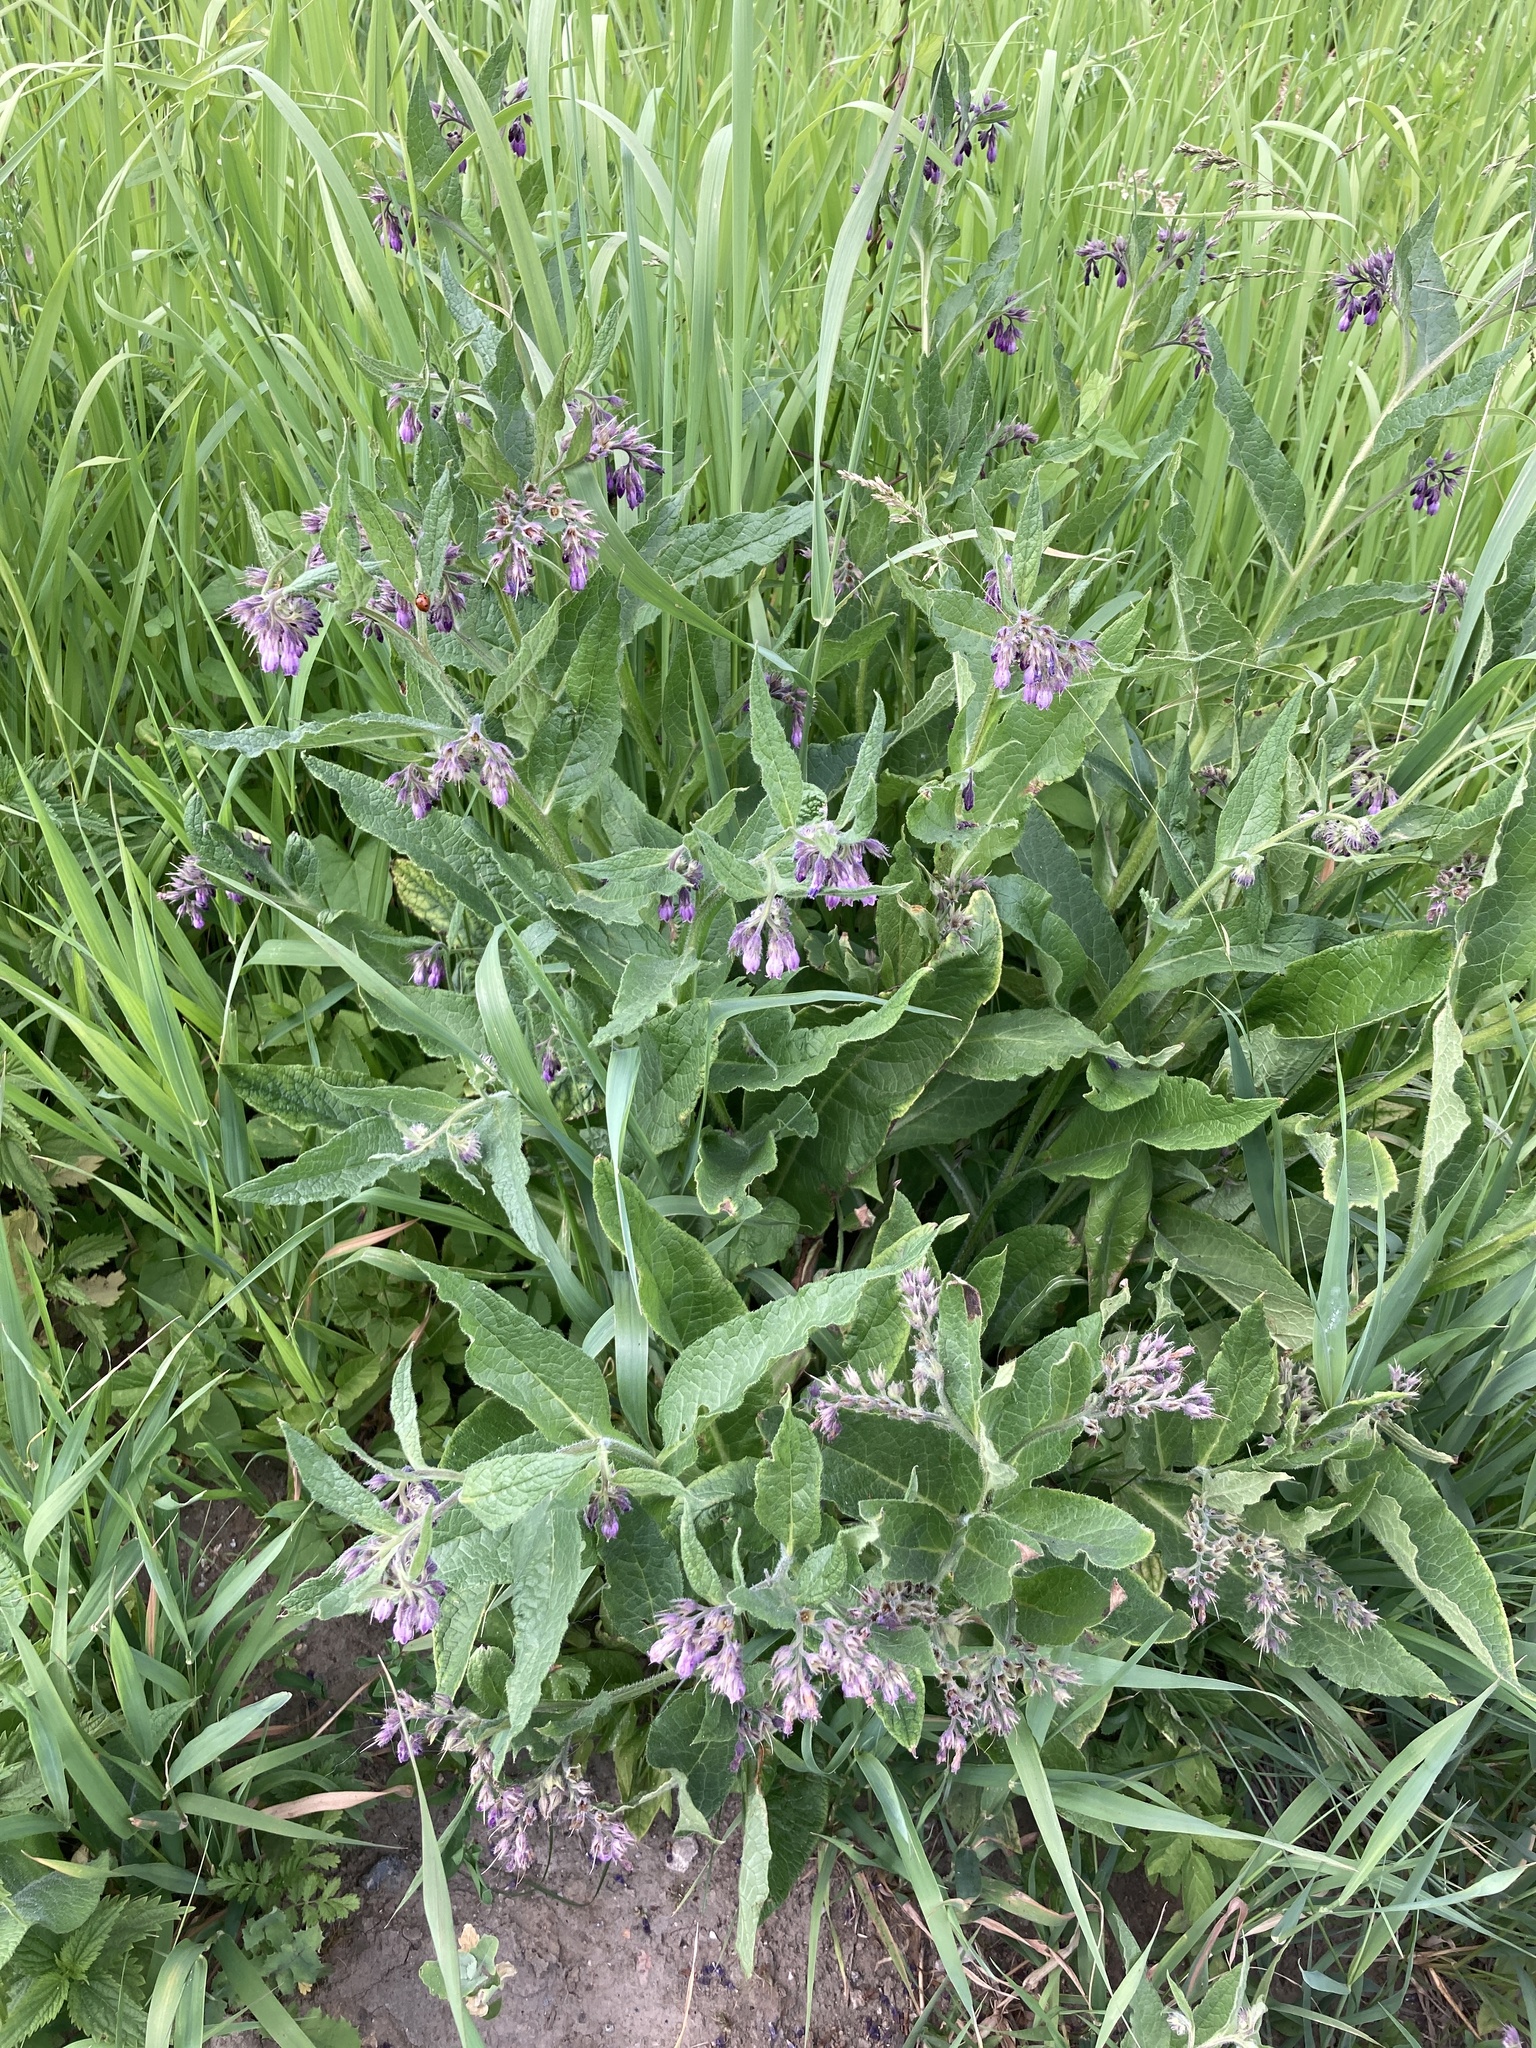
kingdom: Plantae
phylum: Tracheophyta
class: Magnoliopsida
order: Boraginales
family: Boraginaceae
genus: Symphytum
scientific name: Symphytum officinale
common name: Common comfrey
